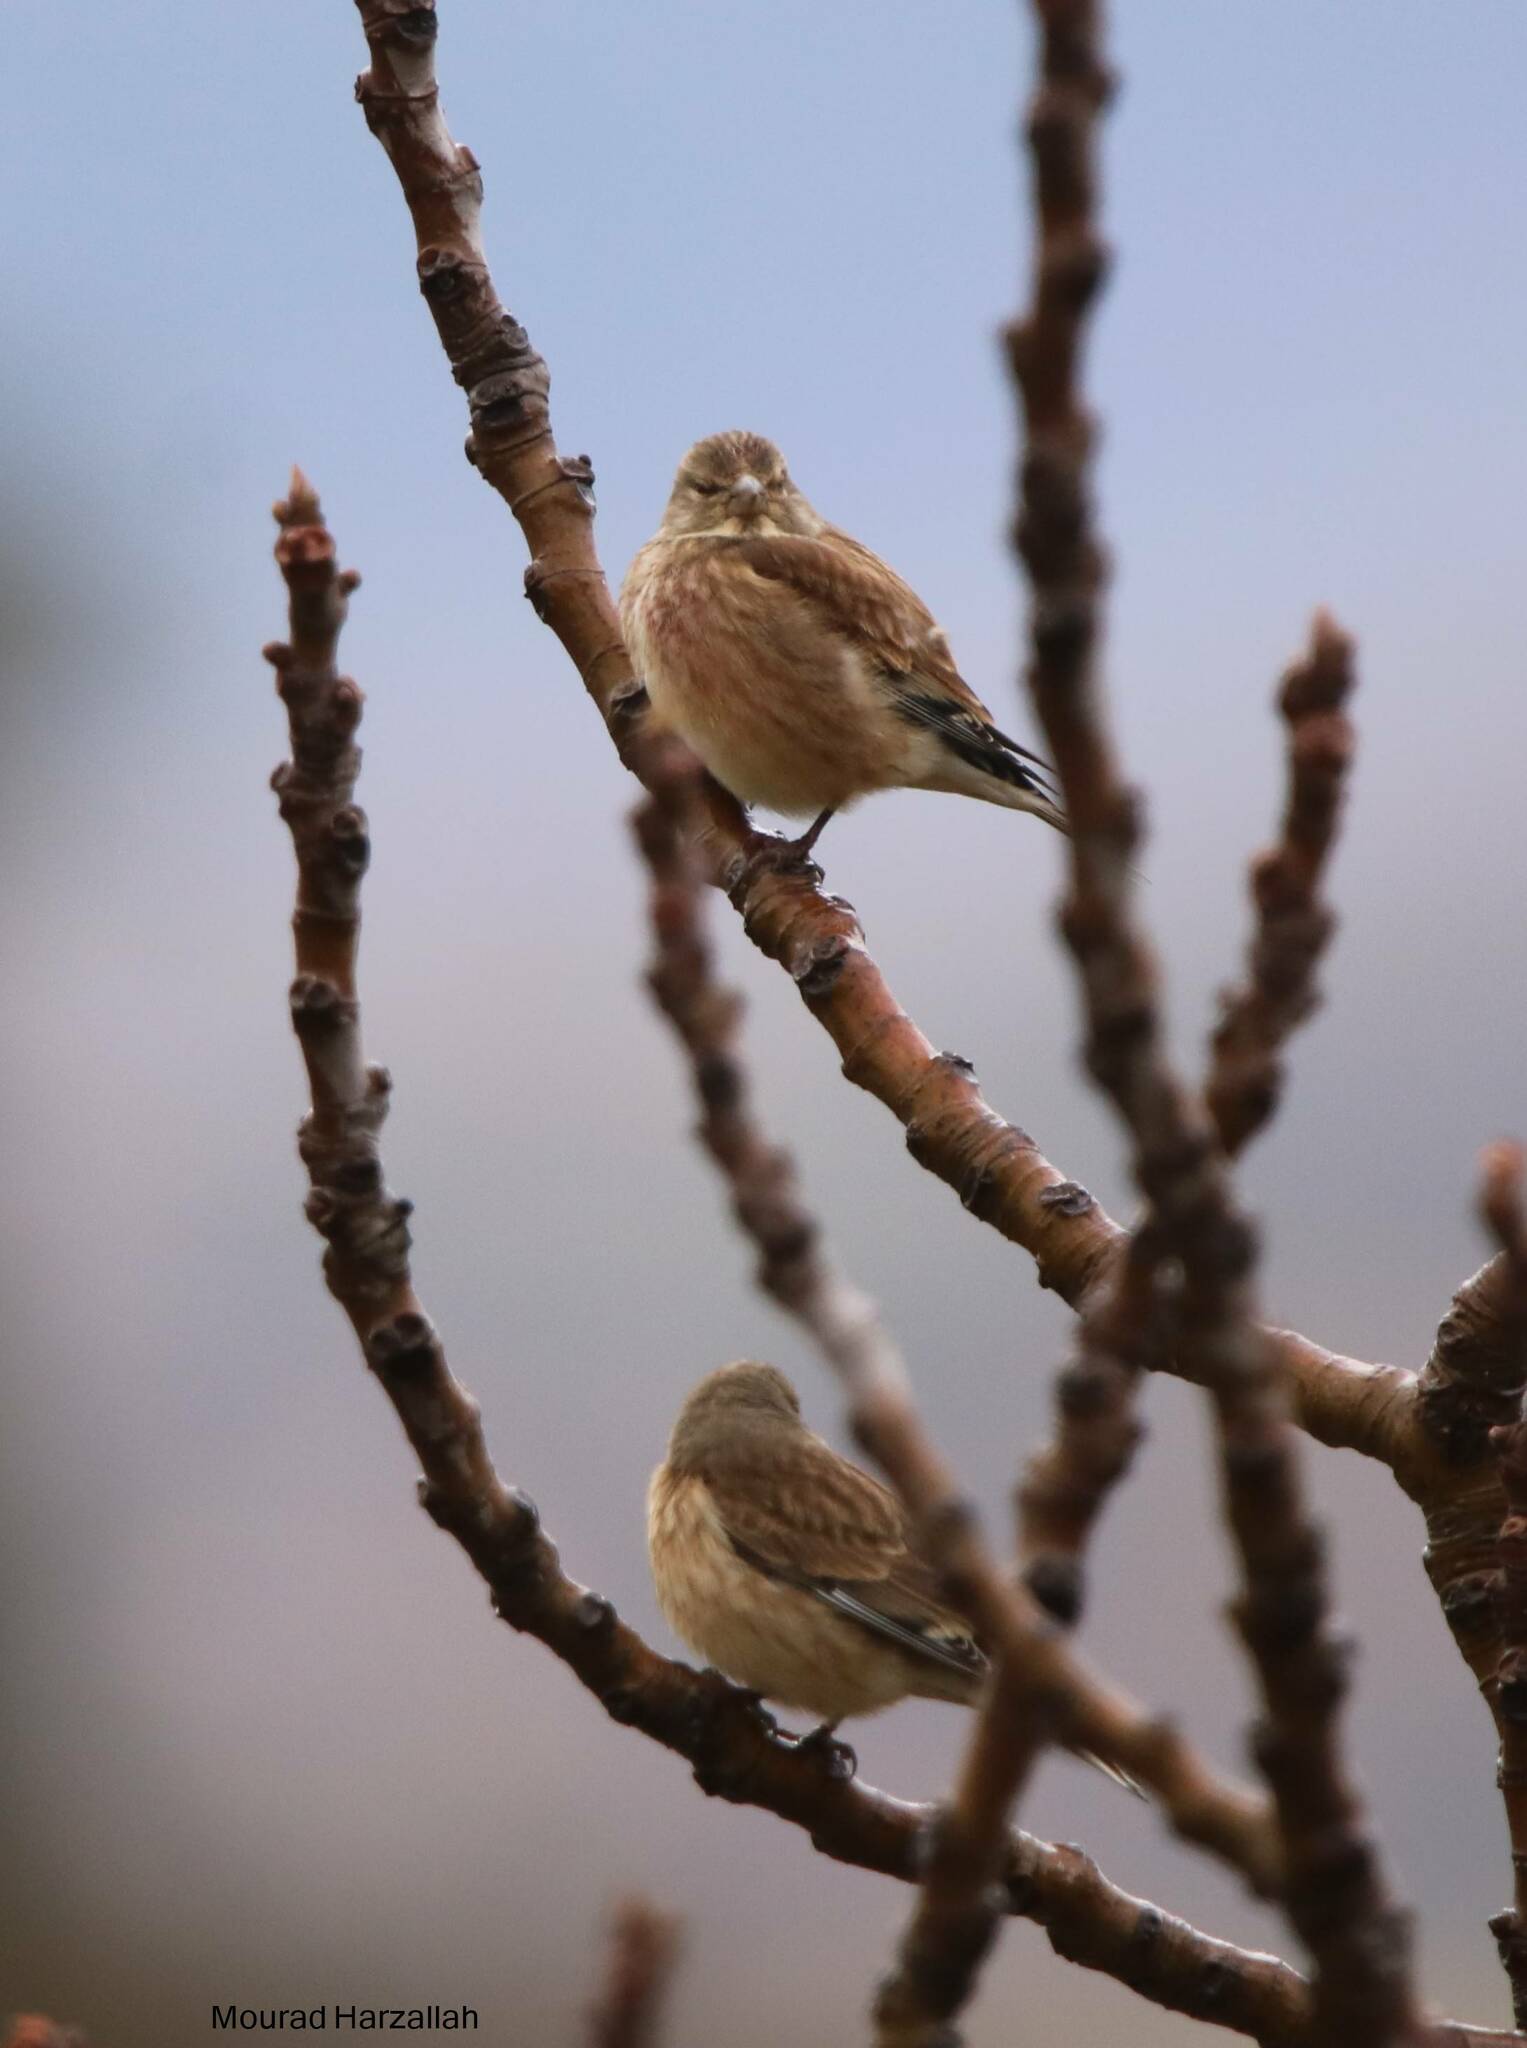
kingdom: Animalia
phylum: Chordata
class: Aves
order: Passeriformes
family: Fringillidae
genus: Linaria
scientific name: Linaria cannabina
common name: Common linnet
